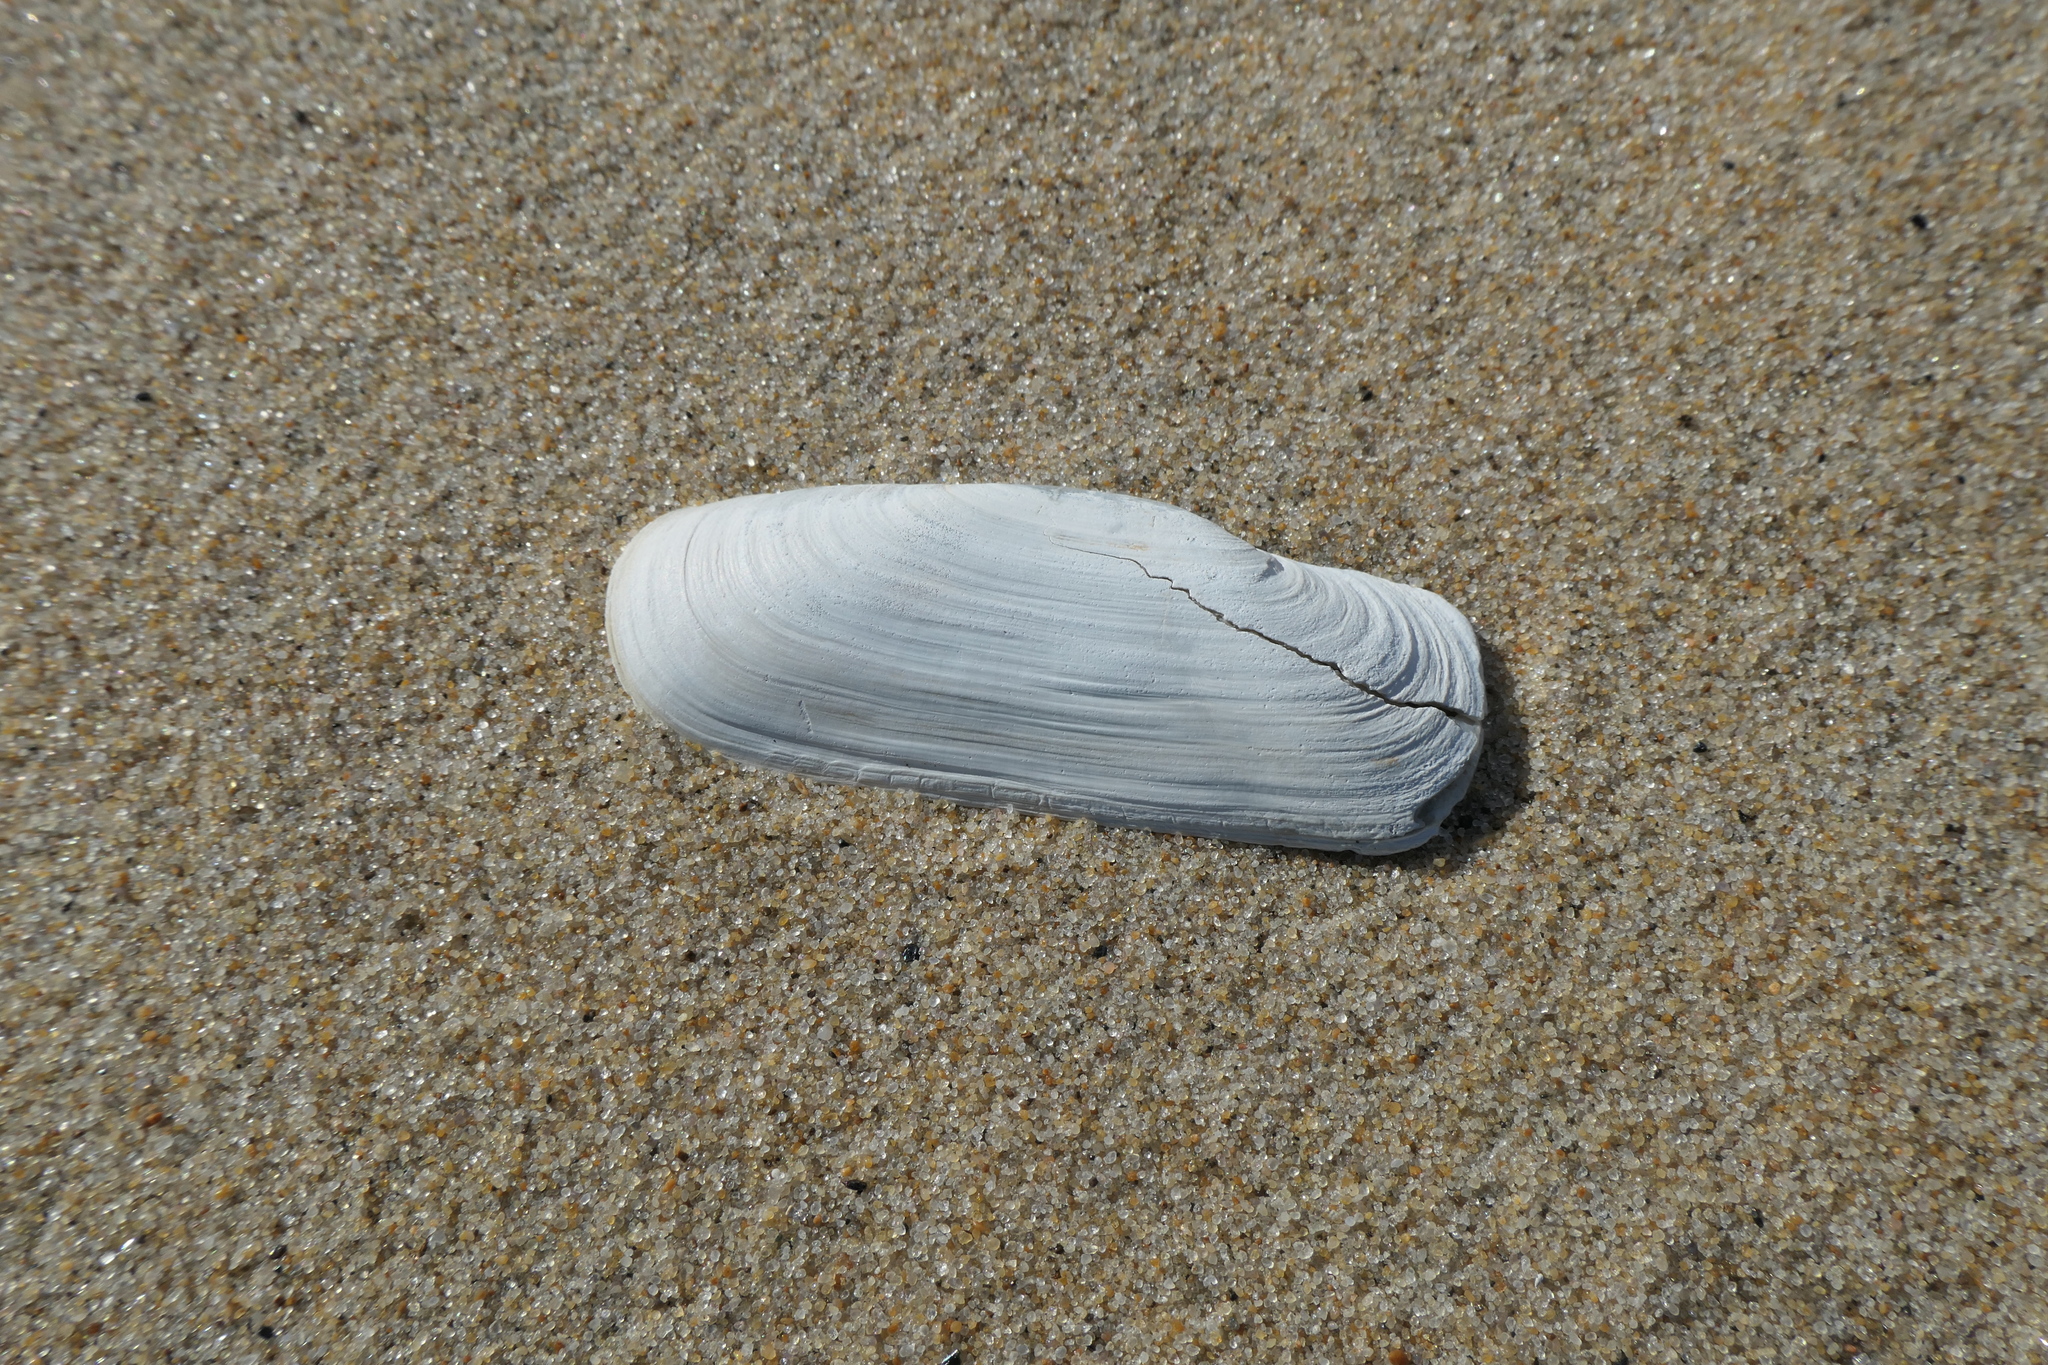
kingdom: Animalia
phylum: Mollusca
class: Bivalvia
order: Cardiida
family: Solecurtidae
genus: Tagelus
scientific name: Tagelus plebeius
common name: Stout tagelus
